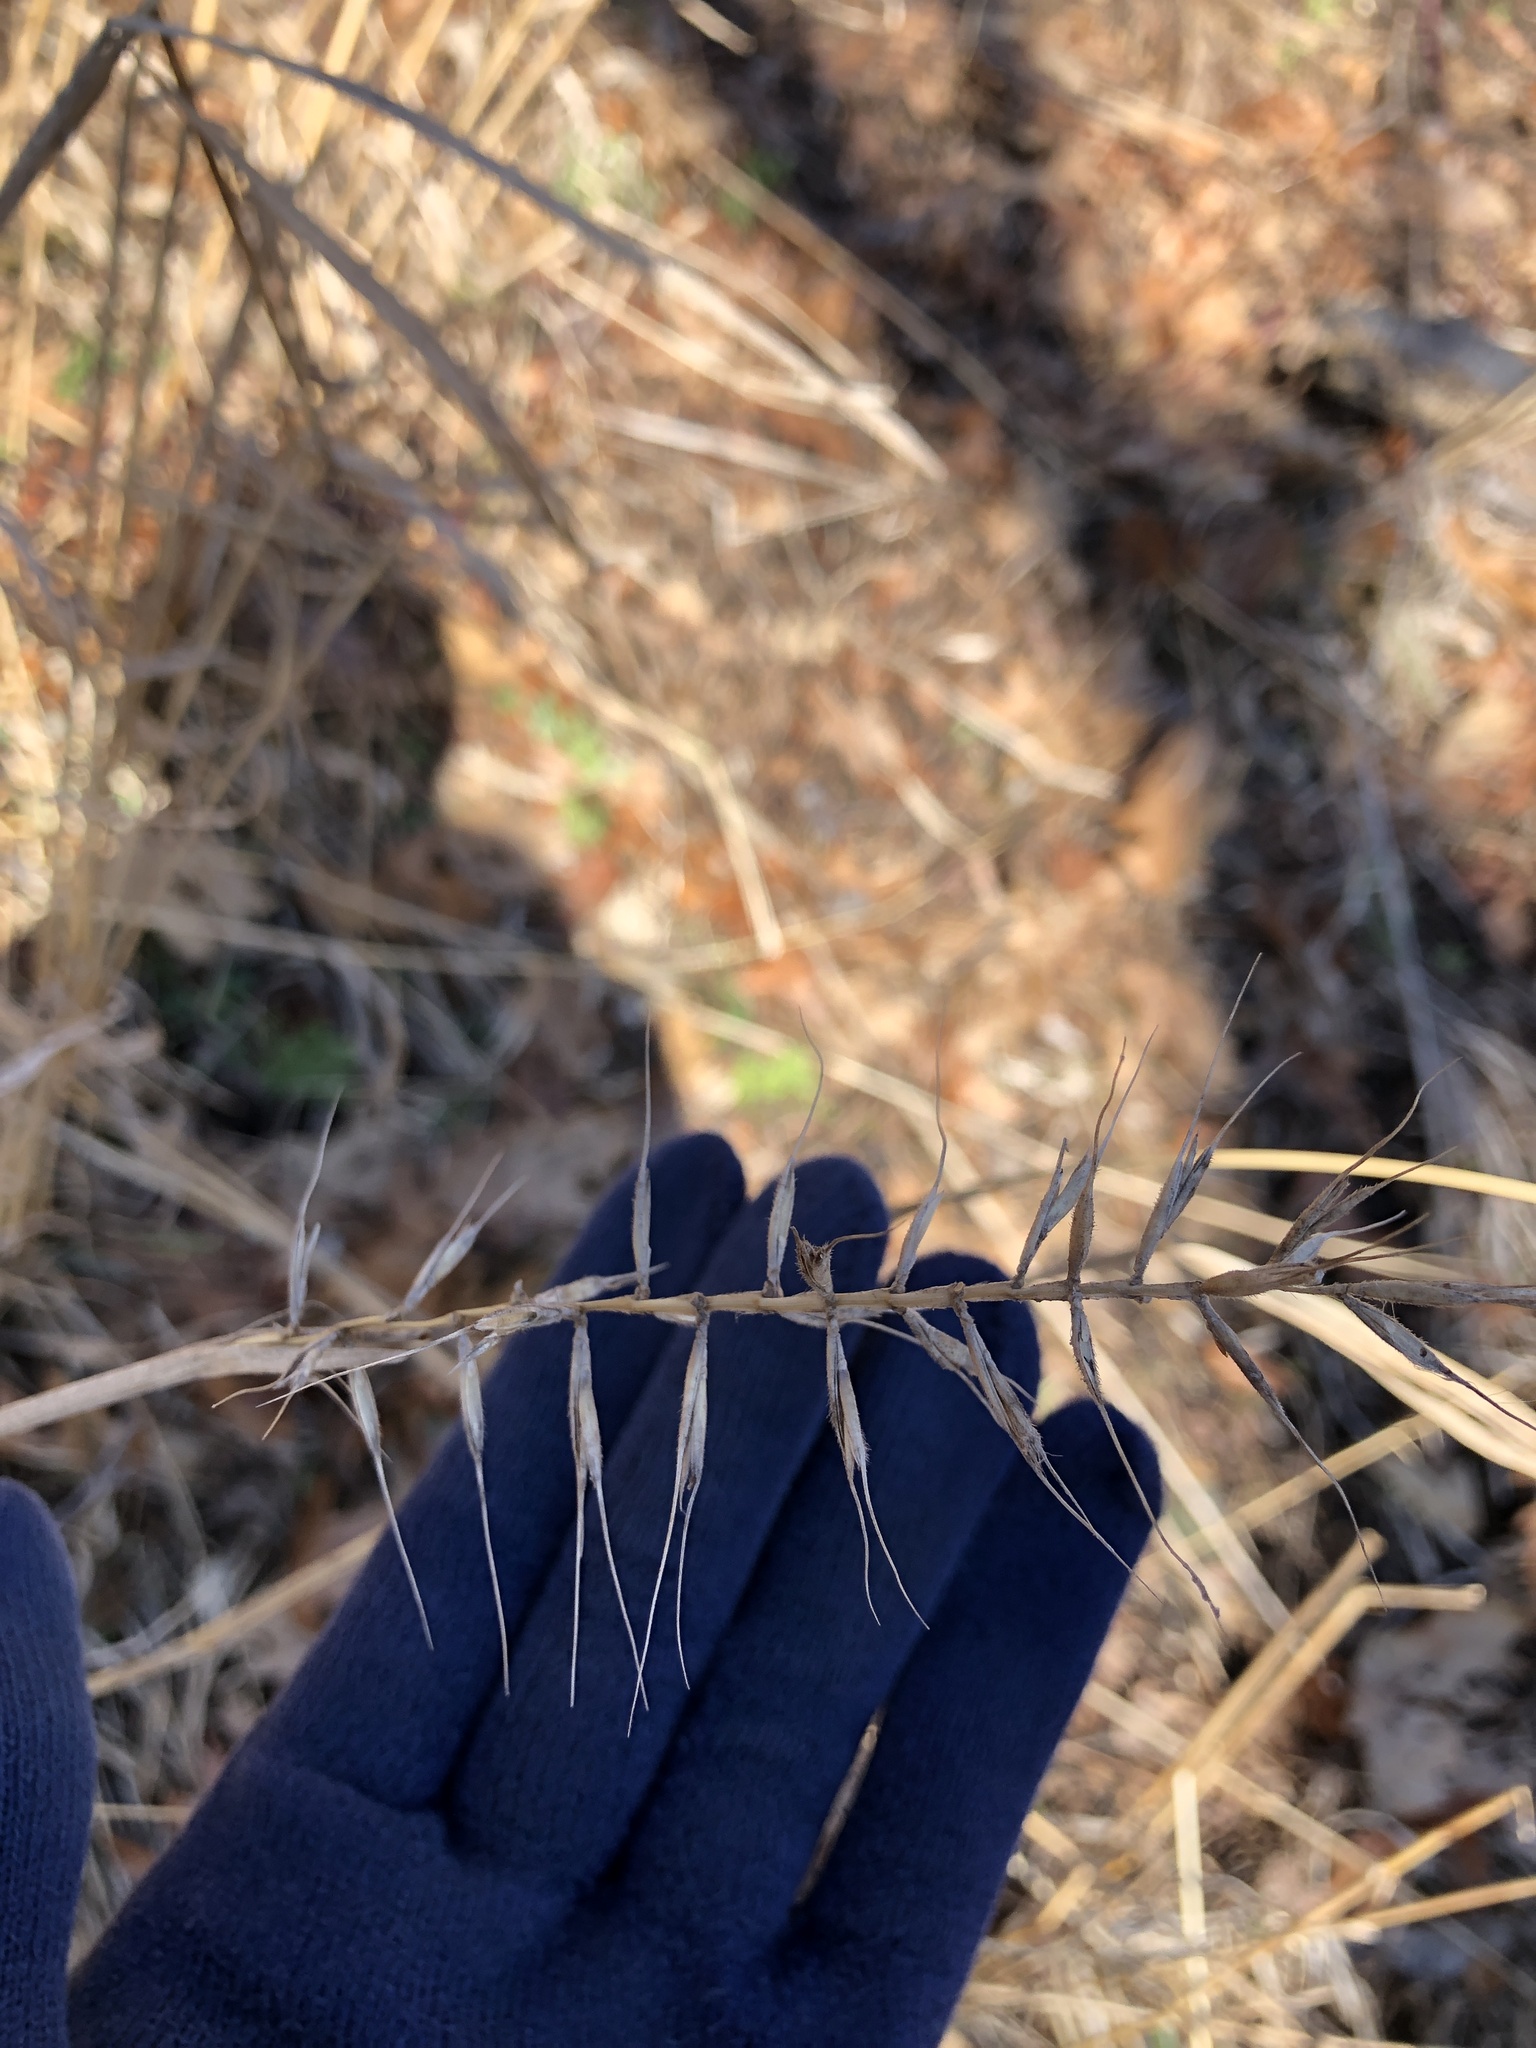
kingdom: Plantae
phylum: Tracheophyta
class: Liliopsida
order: Poales
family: Poaceae
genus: Elymus
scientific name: Elymus hystrix
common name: Bottlebrush grass
